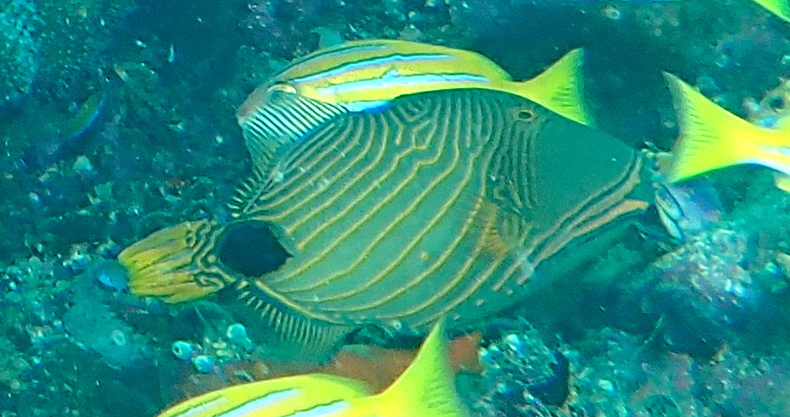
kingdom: Animalia
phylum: Chordata
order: Tetraodontiformes
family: Balistidae
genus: Balistapus
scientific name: Balistapus undulatus
